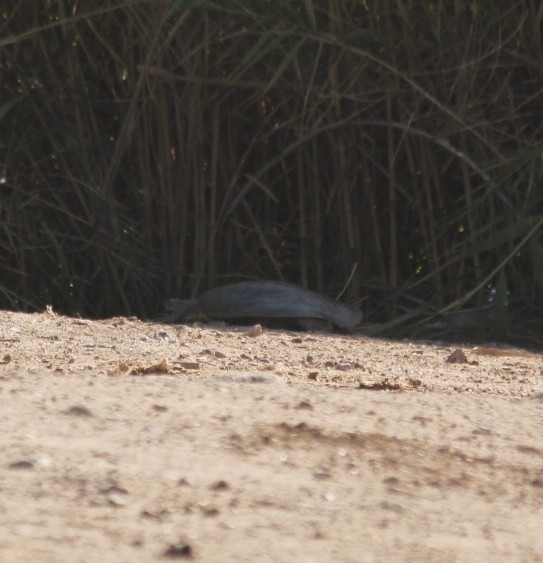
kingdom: Animalia
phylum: Chordata
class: Testudines
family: Trionychidae
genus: Apalone
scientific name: Apalone spinifera
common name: Spiny softshell turtle
